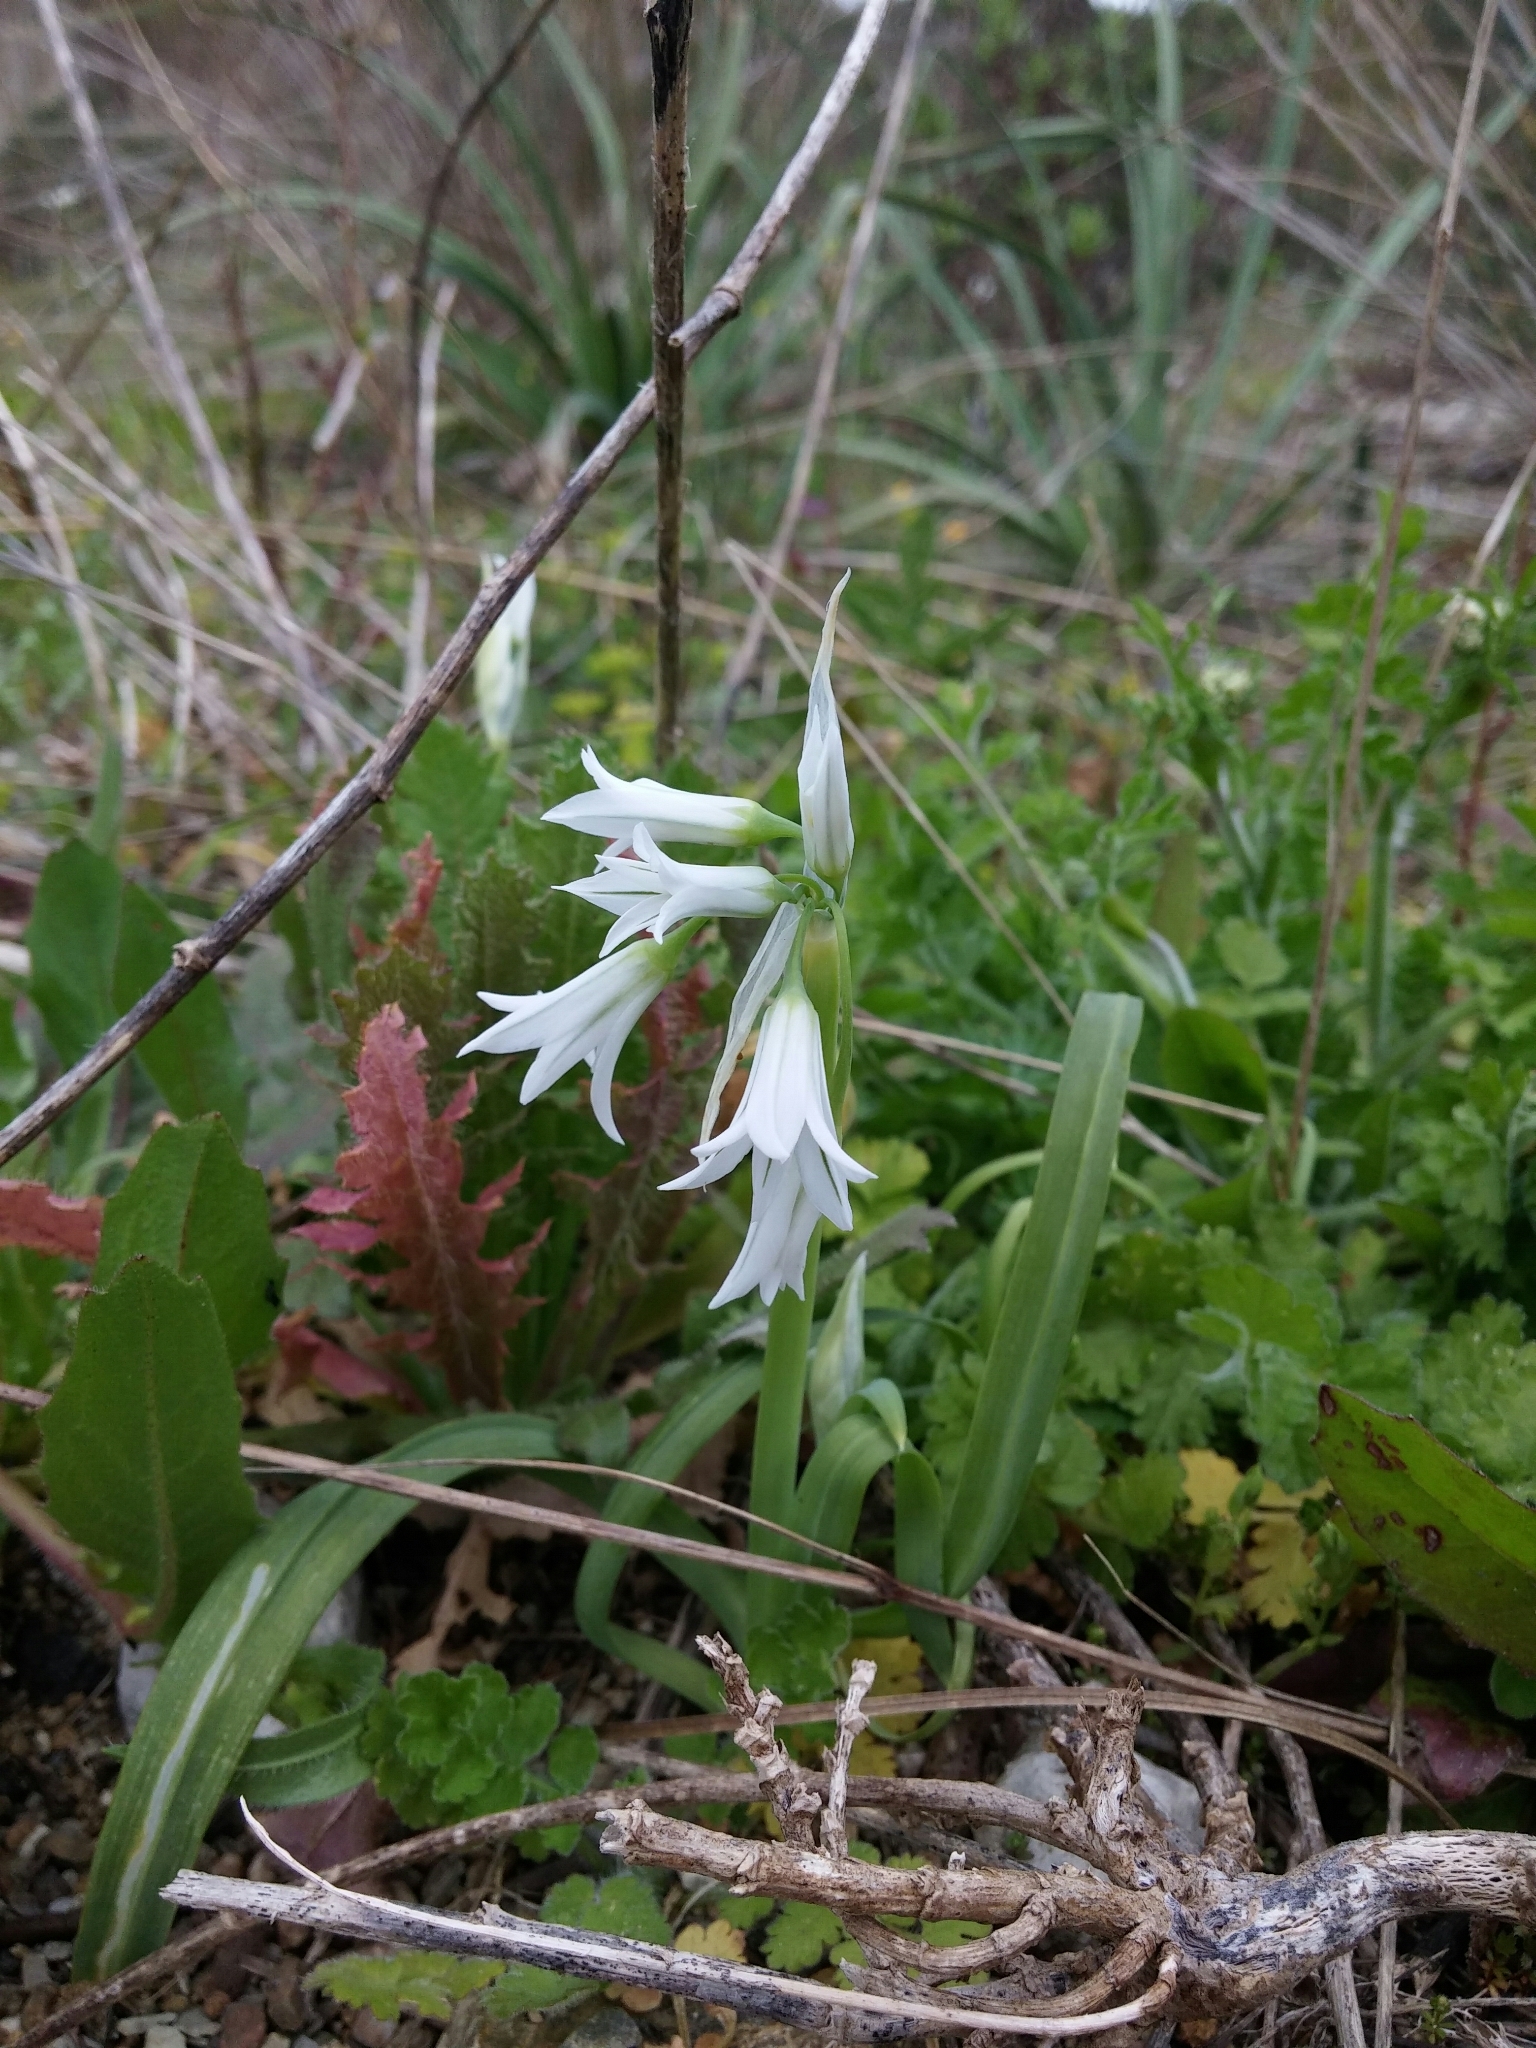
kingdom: Plantae
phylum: Tracheophyta
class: Liliopsida
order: Asparagales
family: Amaryllidaceae
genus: Allium
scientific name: Allium triquetrum
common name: Three-cornered garlic
